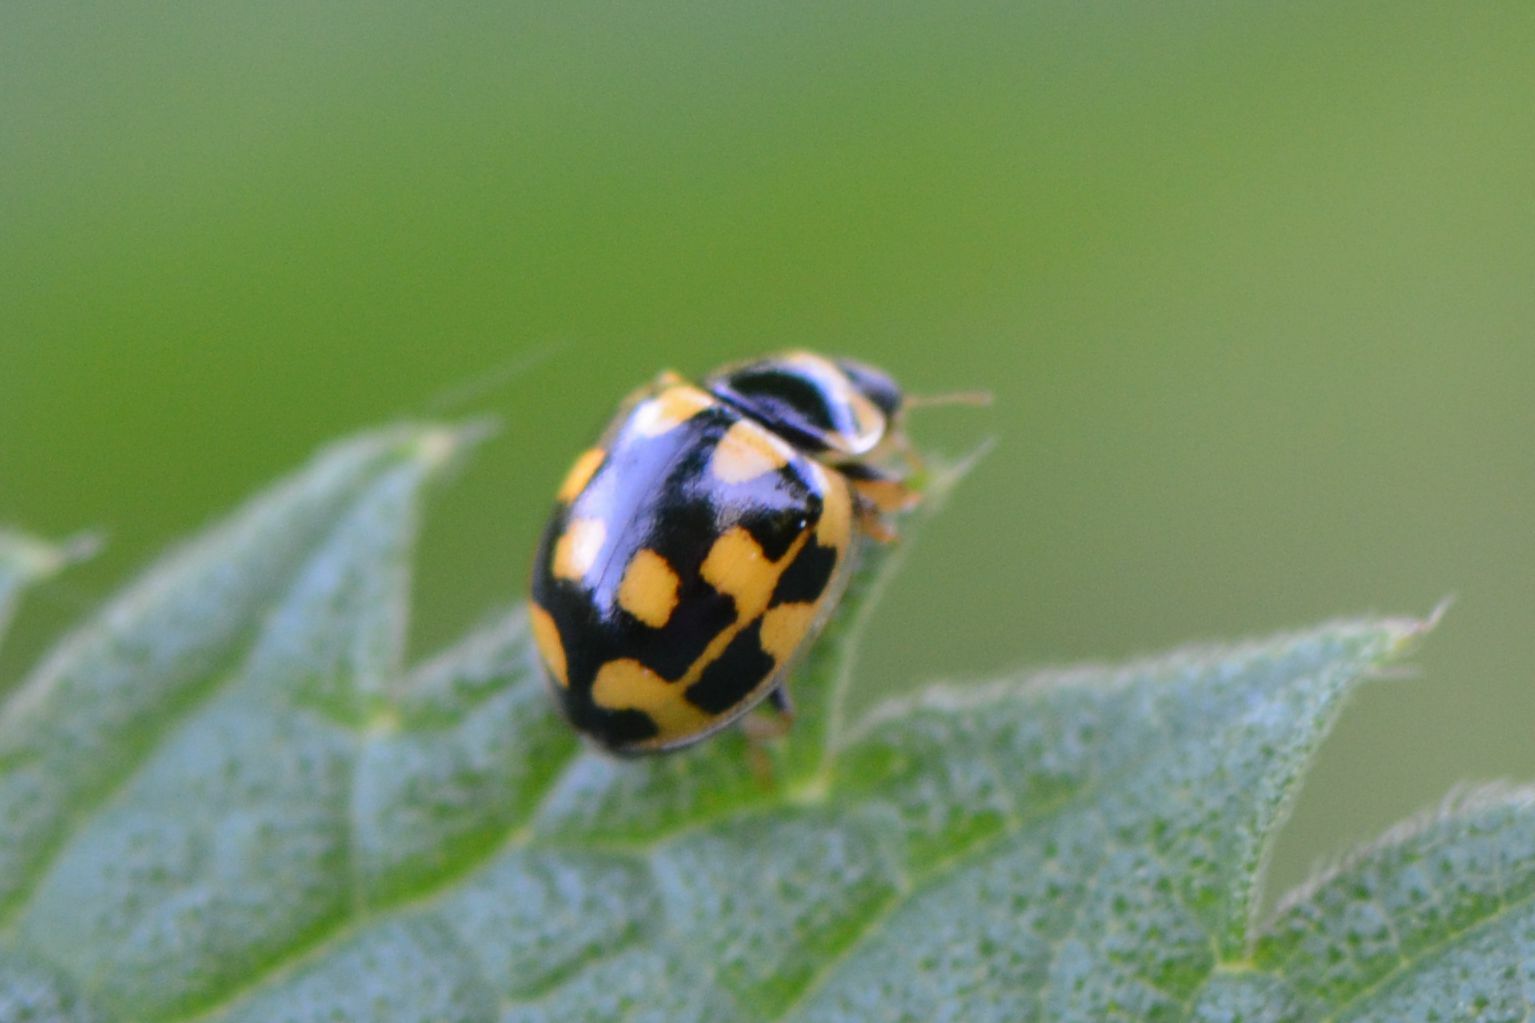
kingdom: Animalia
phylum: Arthropoda
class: Insecta
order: Coleoptera
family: Coccinellidae
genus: Propylaea
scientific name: Propylaea quatuordecimpunctata
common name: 14-spotted ladybird beetle
